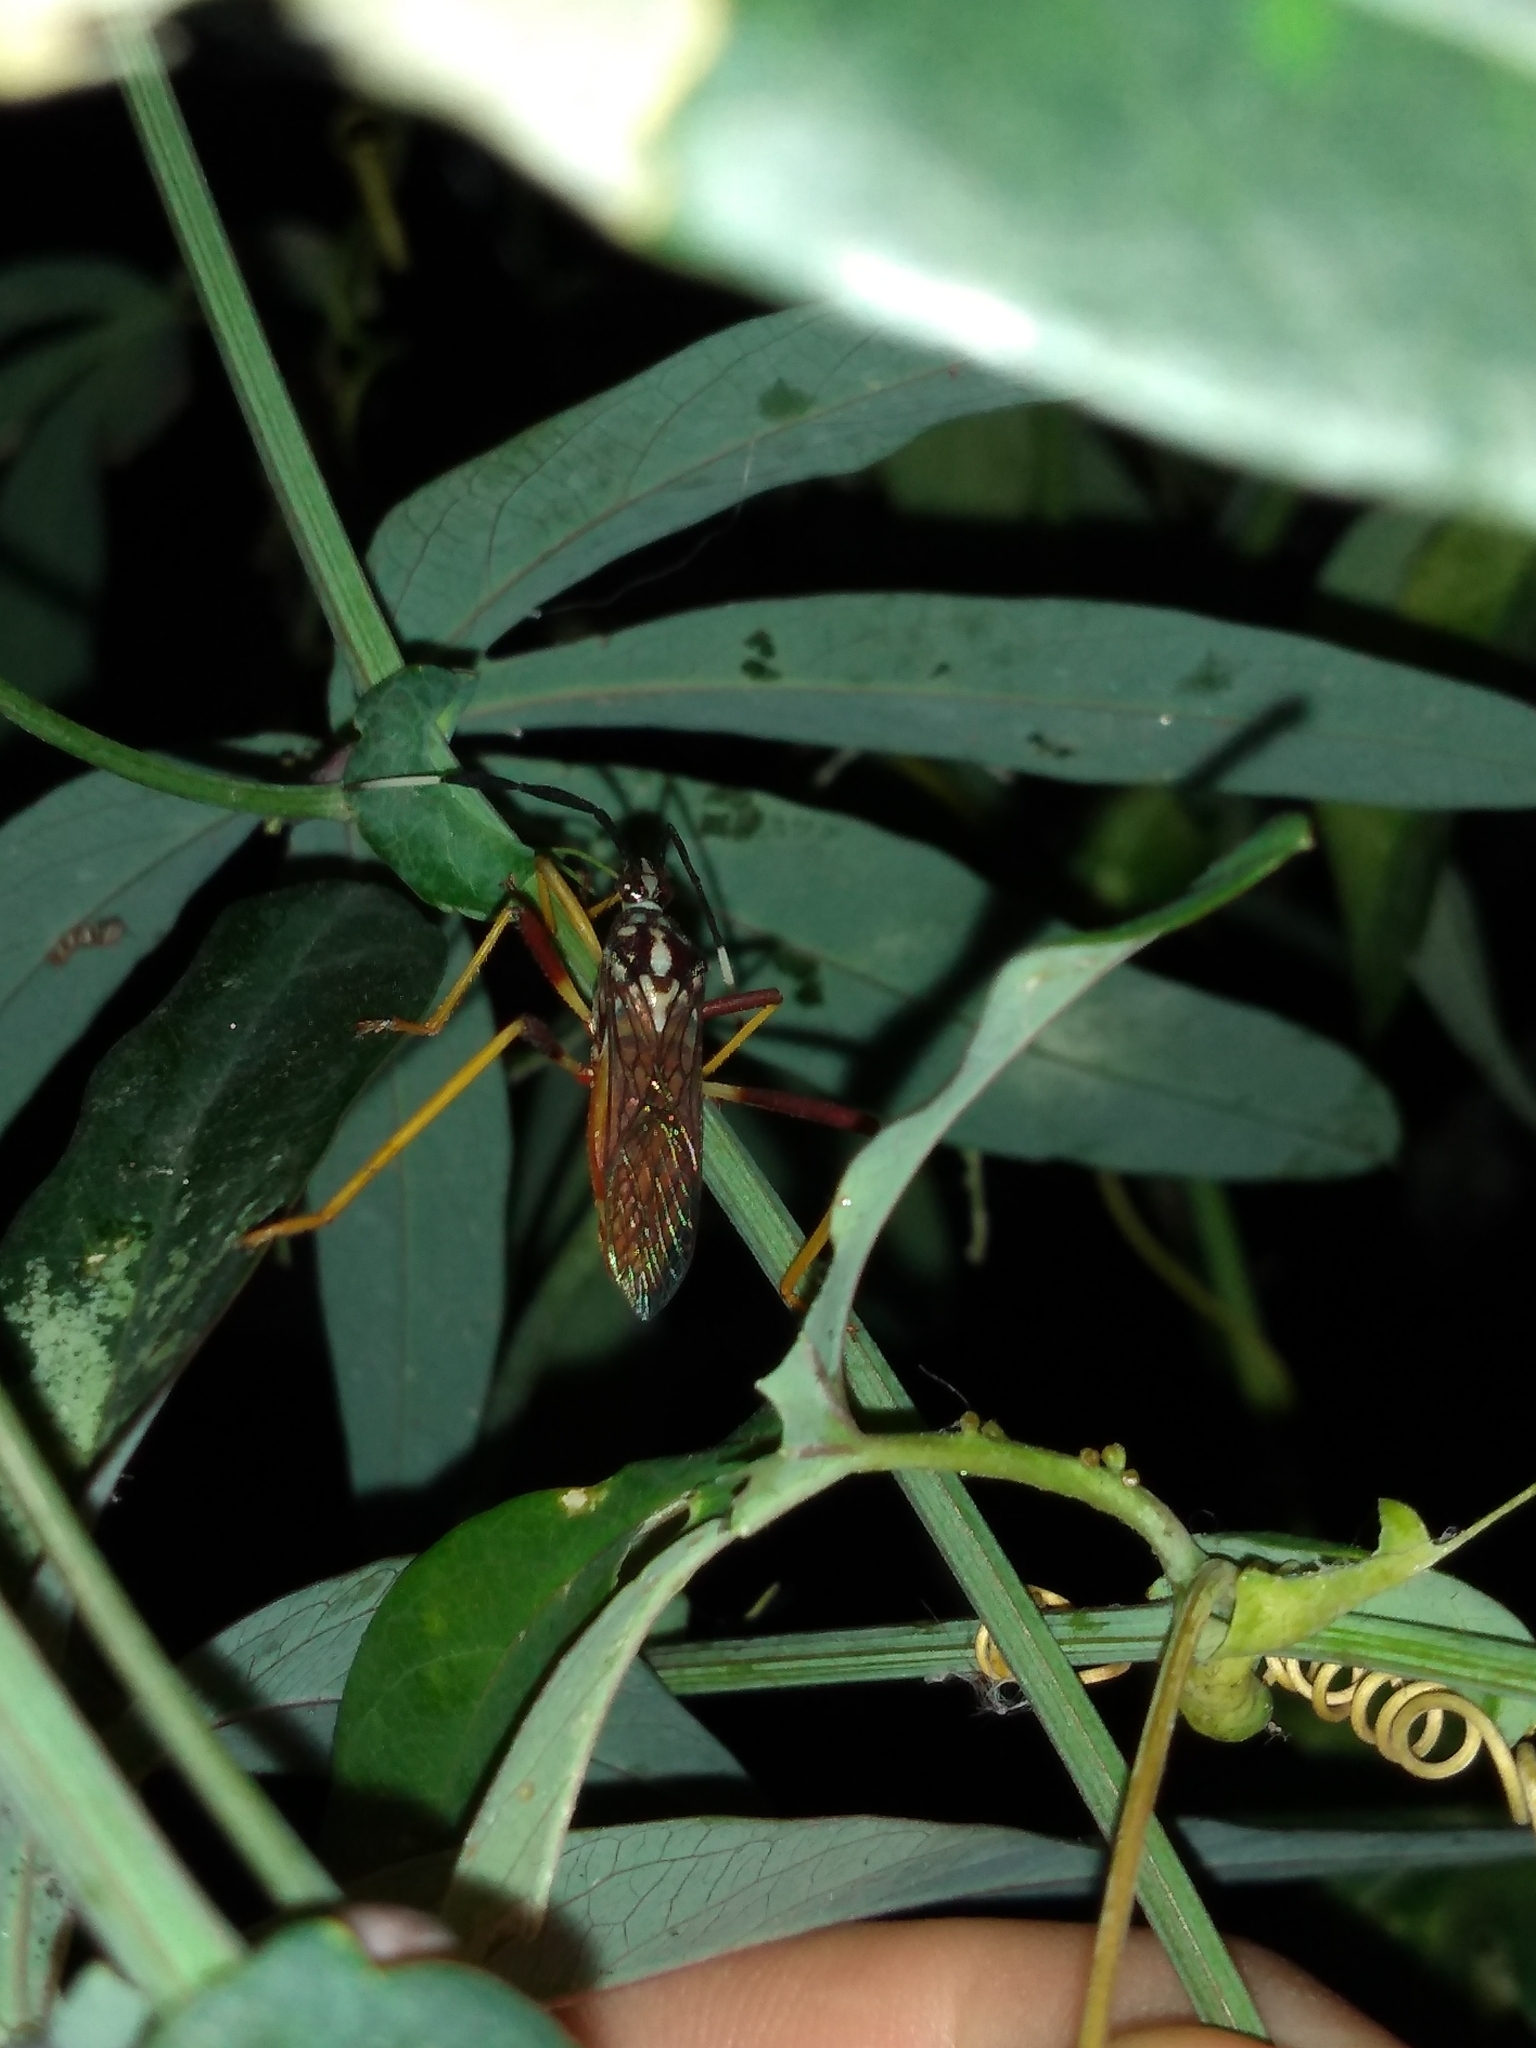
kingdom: Animalia
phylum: Arthropoda
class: Insecta
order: Hemiptera
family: Coreidae
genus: Holhymenia
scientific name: Holhymenia histrio
